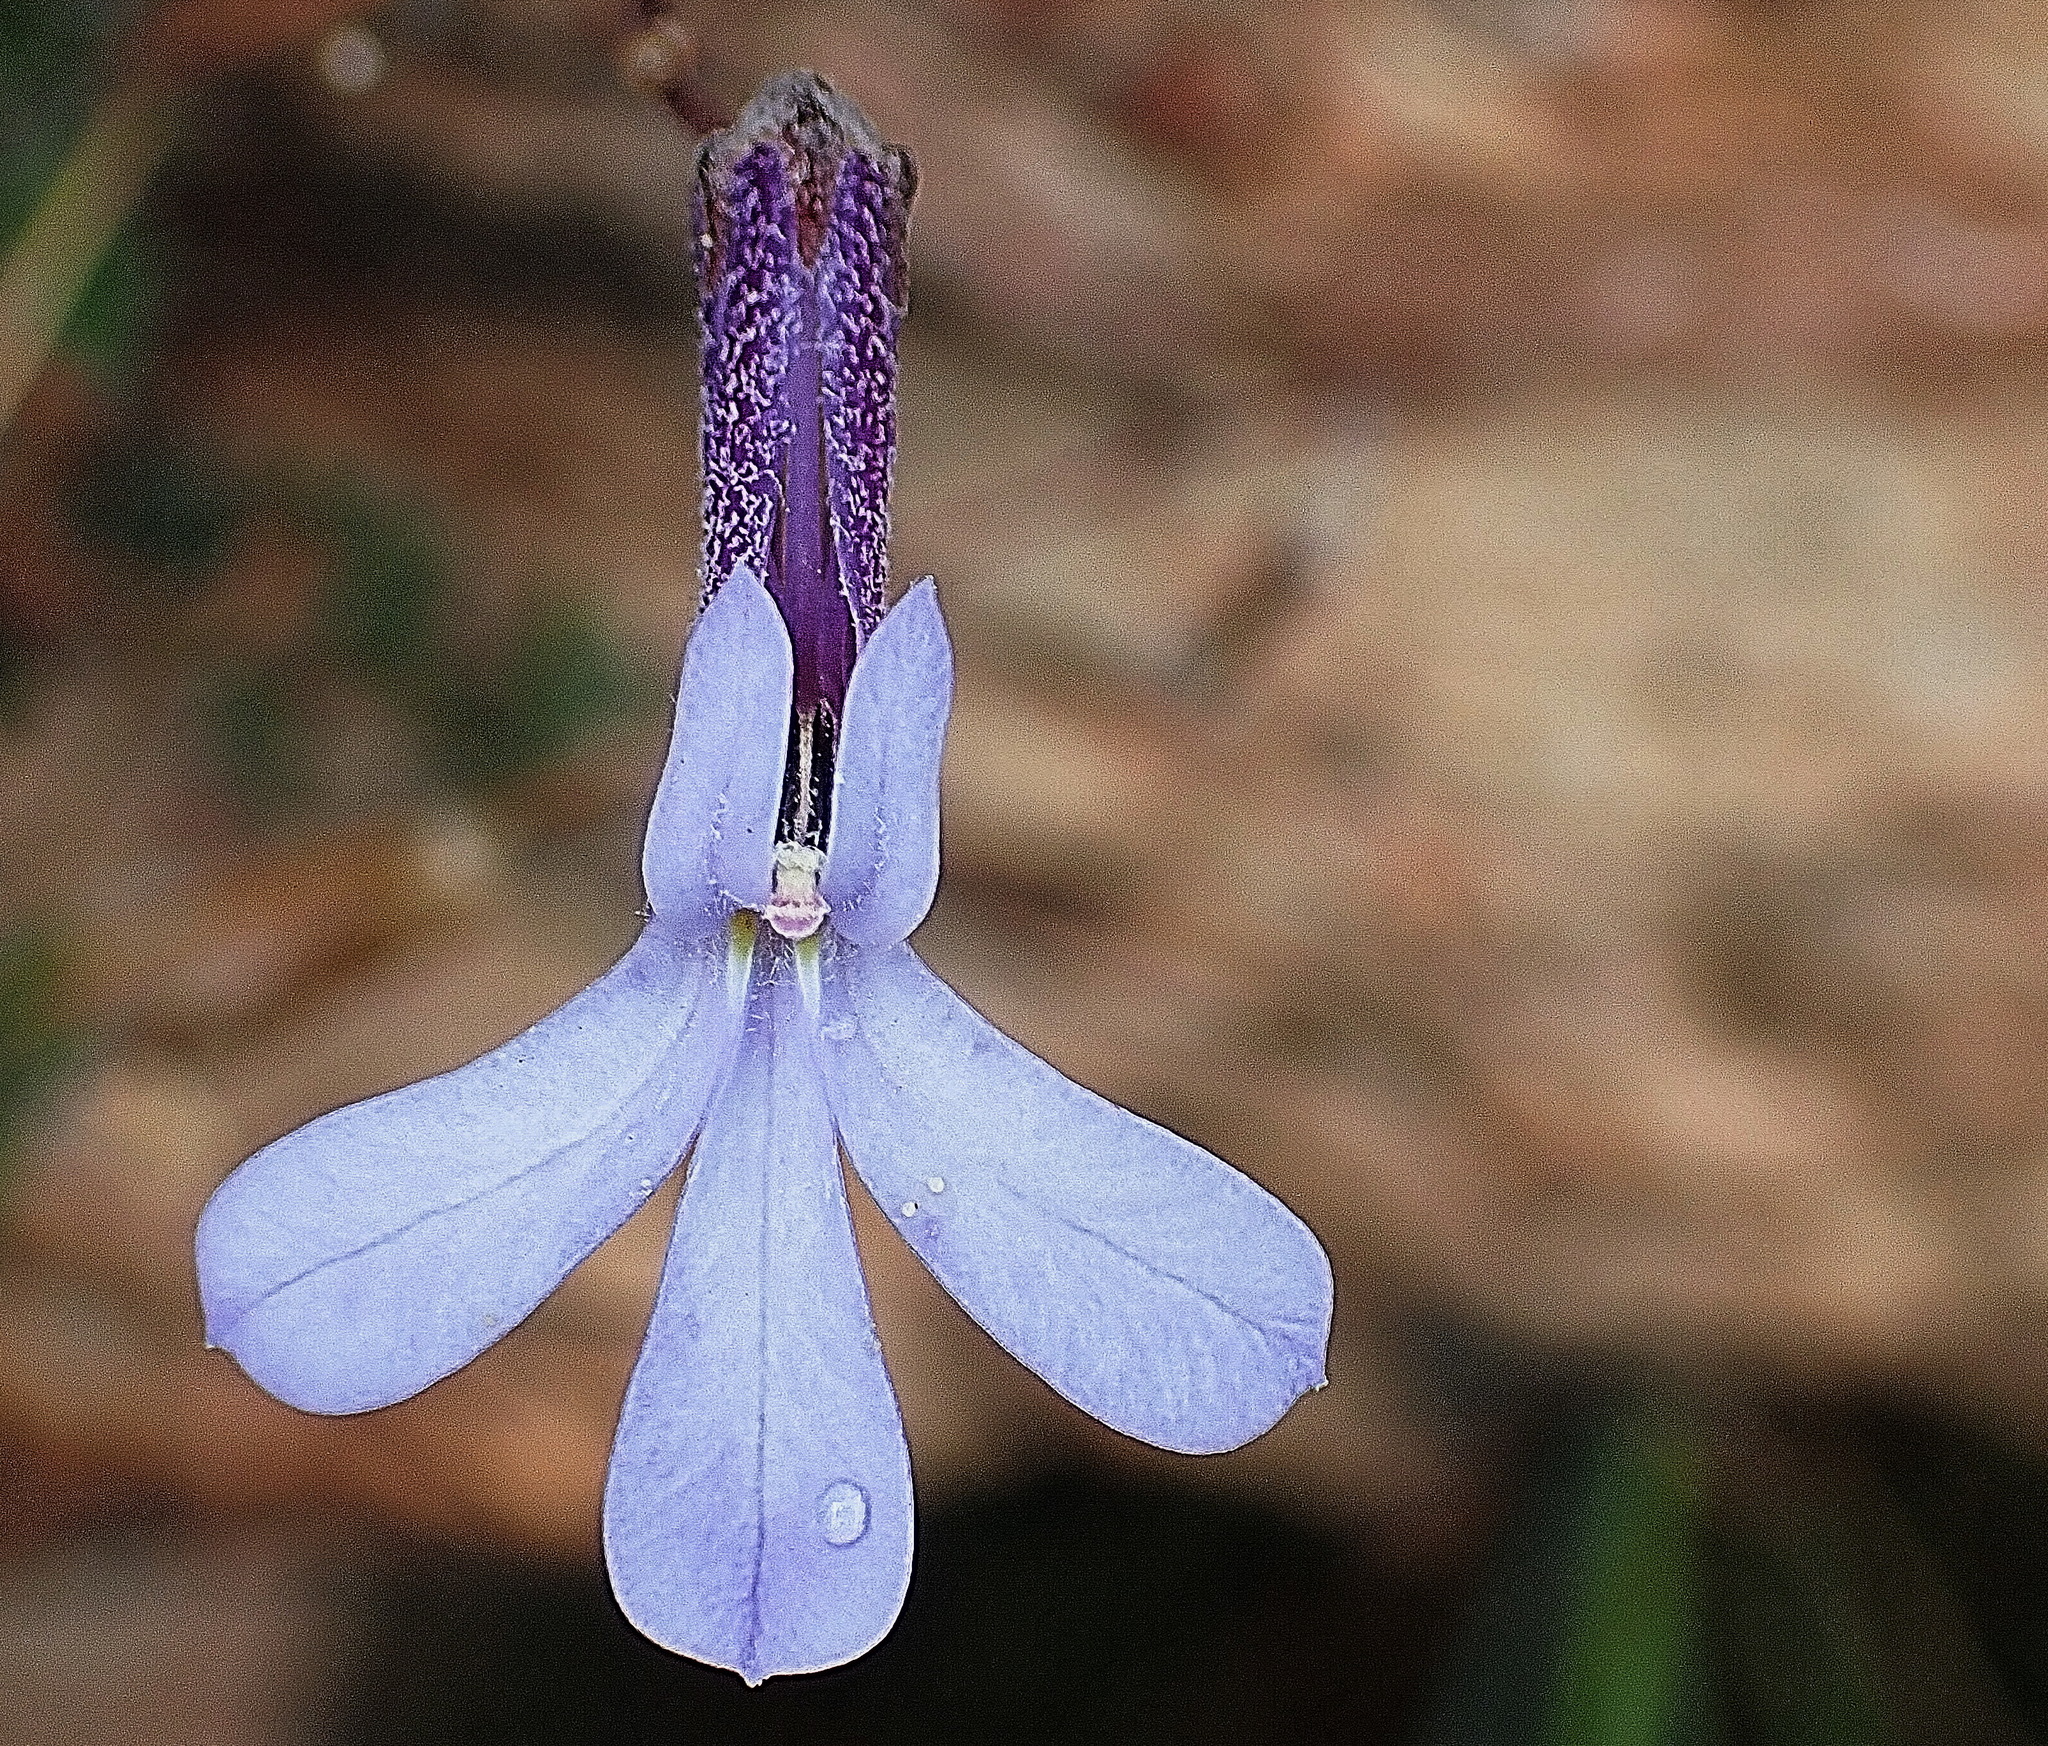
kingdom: Plantae
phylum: Tracheophyta
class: Magnoliopsida
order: Asterales
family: Campanulaceae
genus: Lobelia
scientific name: Lobelia dichroma
